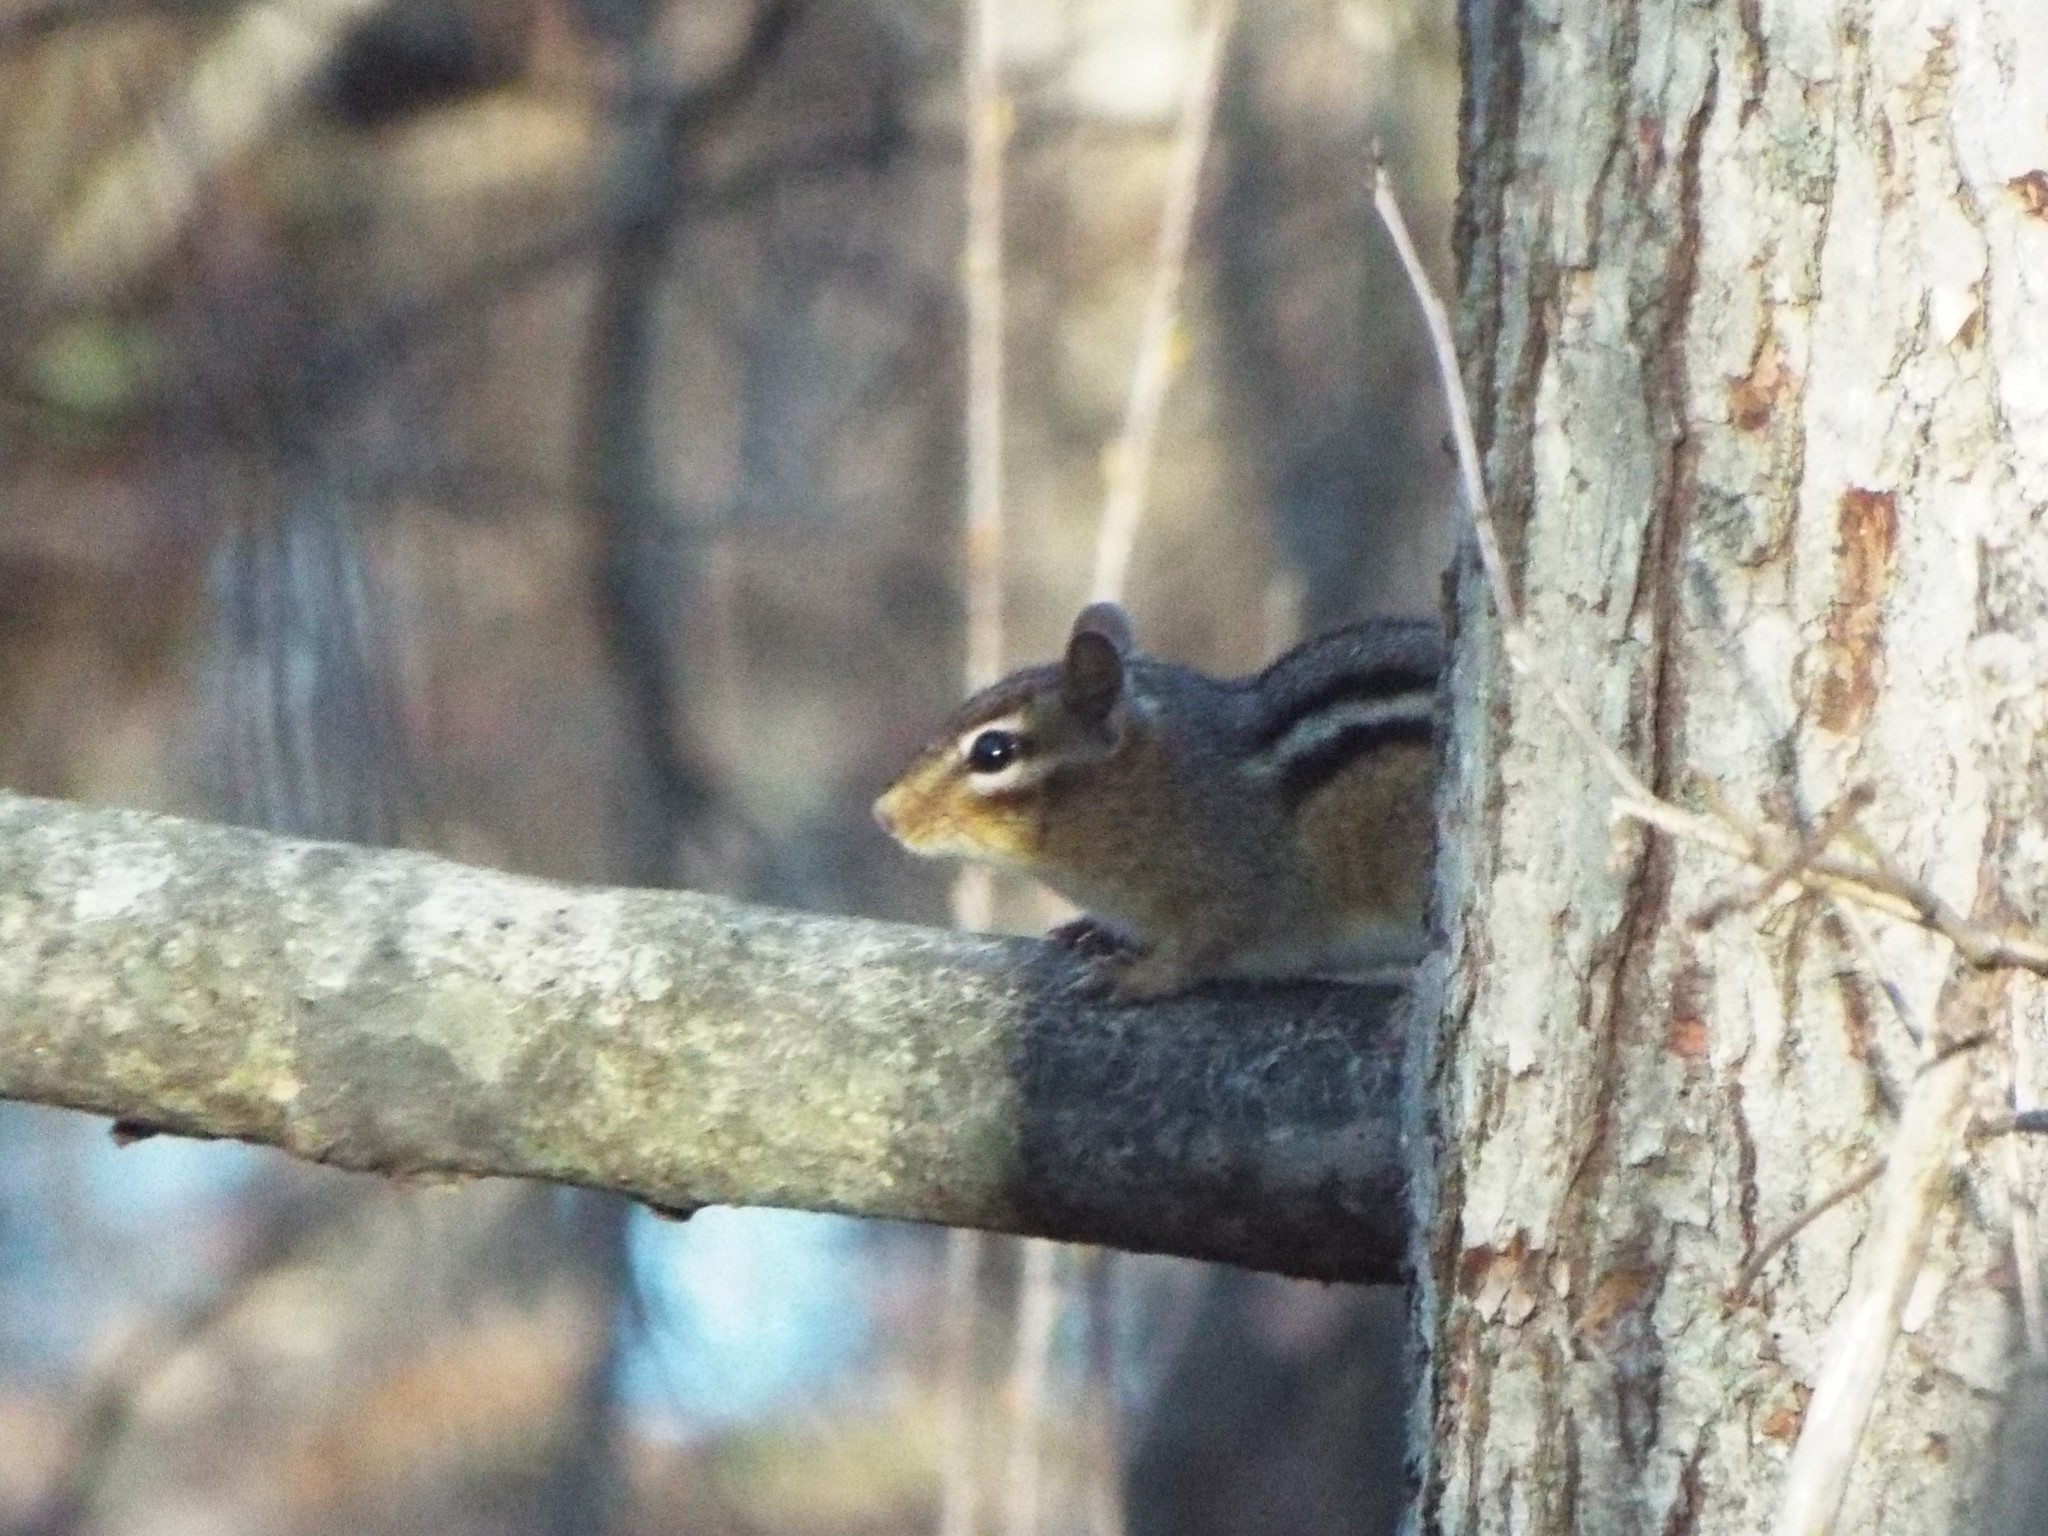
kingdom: Animalia
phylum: Chordata
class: Mammalia
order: Rodentia
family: Sciuridae
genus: Tamias
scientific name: Tamias striatus
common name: Eastern chipmunk
